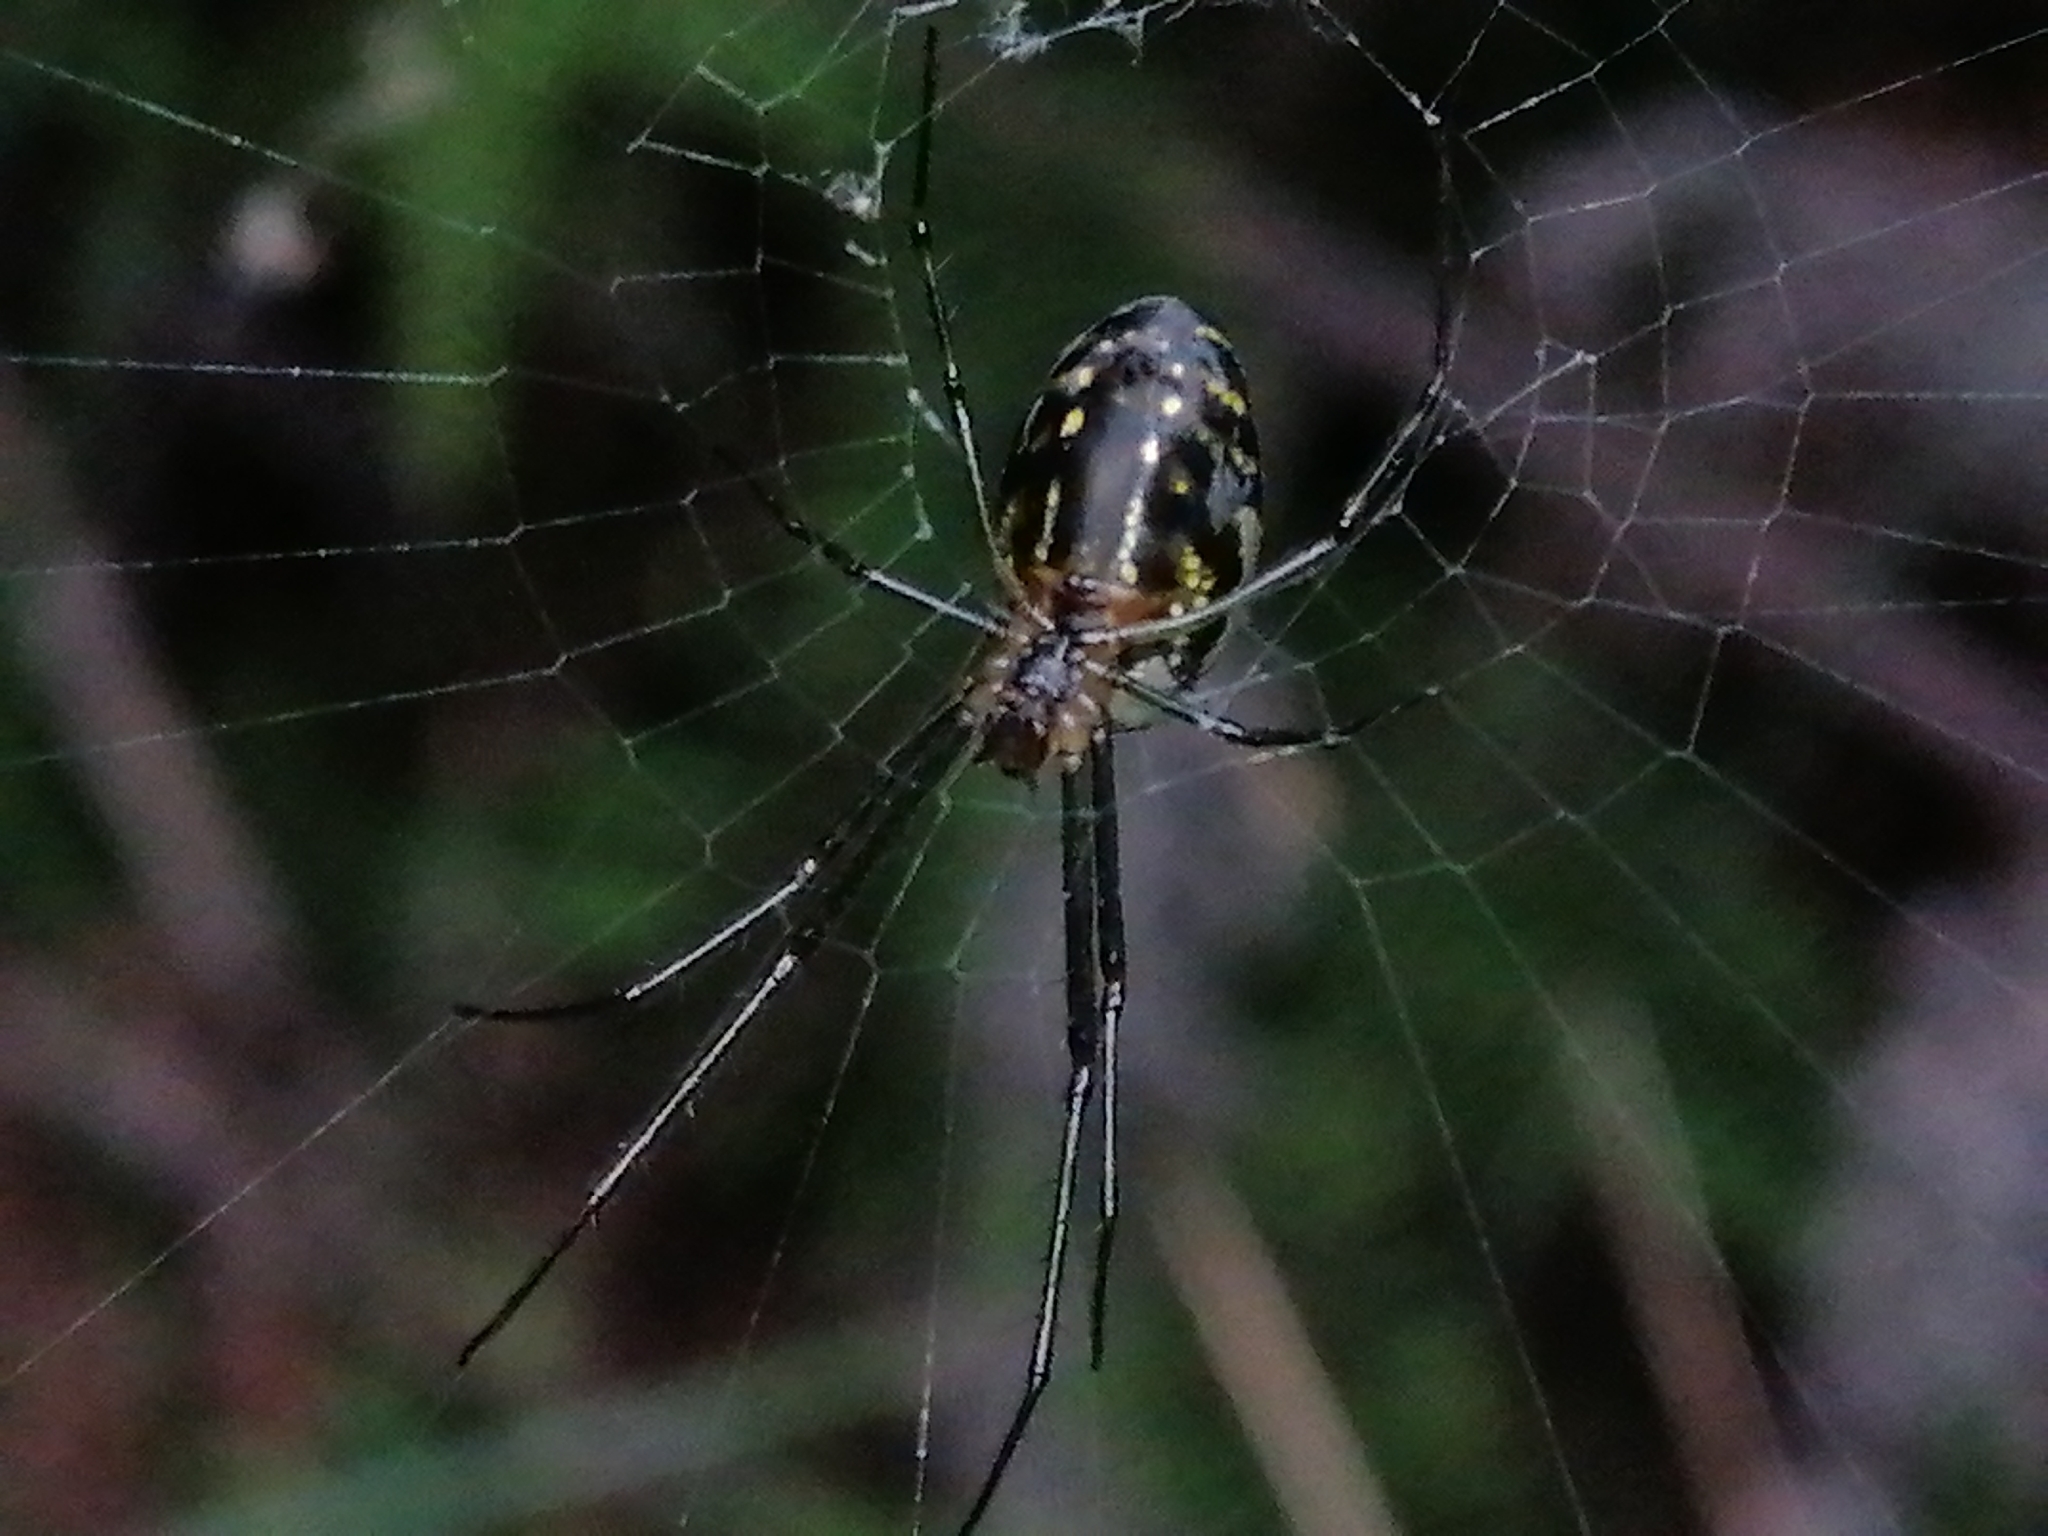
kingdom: Animalia
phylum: Arthropoda
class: Arachnida
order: Araneae
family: Tetragnathidae
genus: Leucauge
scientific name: Leucauge dromedaria
